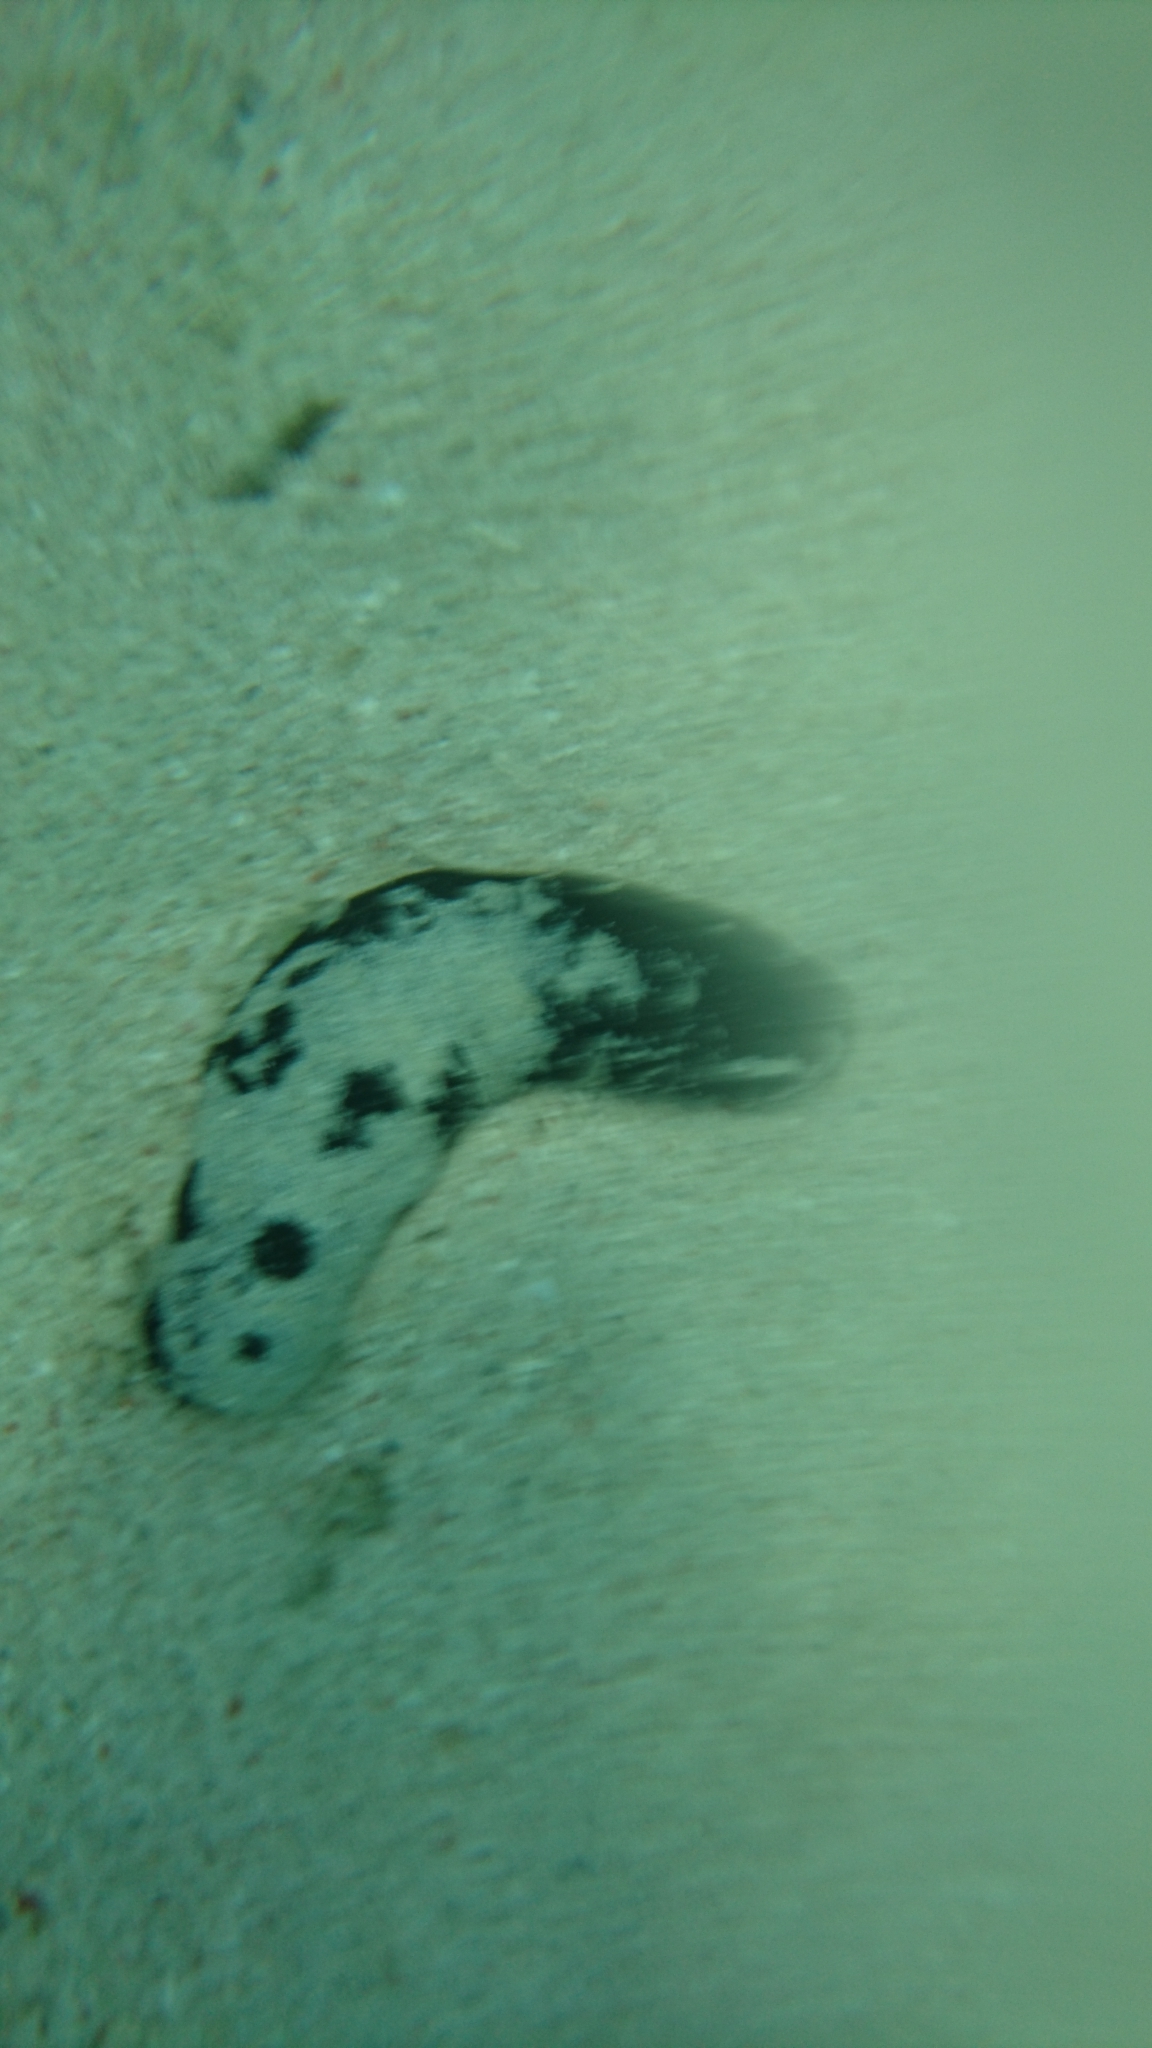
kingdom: Animalia
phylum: Echinodermata
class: Holothuroidea
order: Holothuriida
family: Holothuriidae
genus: Holothuria
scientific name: Holothuria atra
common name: Lollyfish
